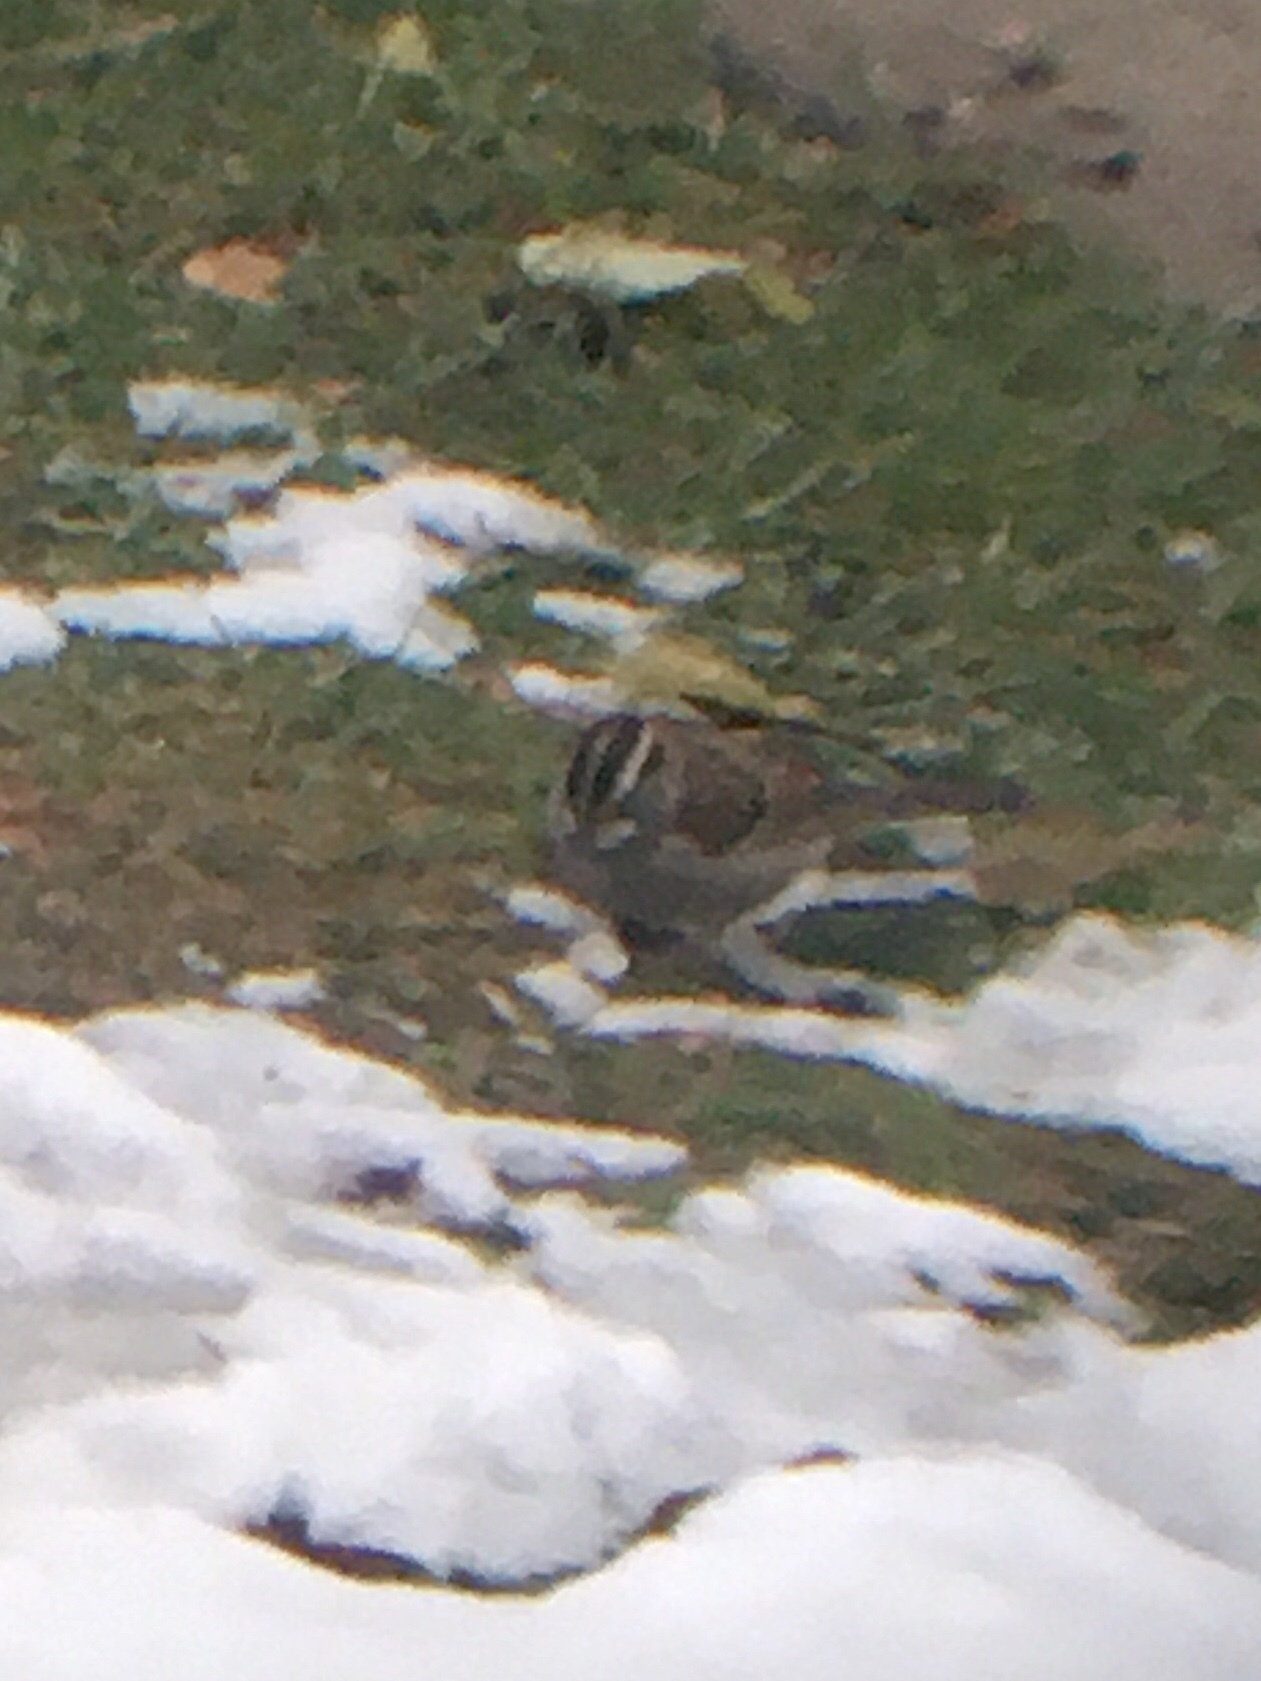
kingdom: Animalia
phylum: Chordata
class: Aves
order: Passeriformes
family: Passerellidae
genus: Zonotrichia
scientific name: Zonotrichia albicollis
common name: White-throated sparrow
